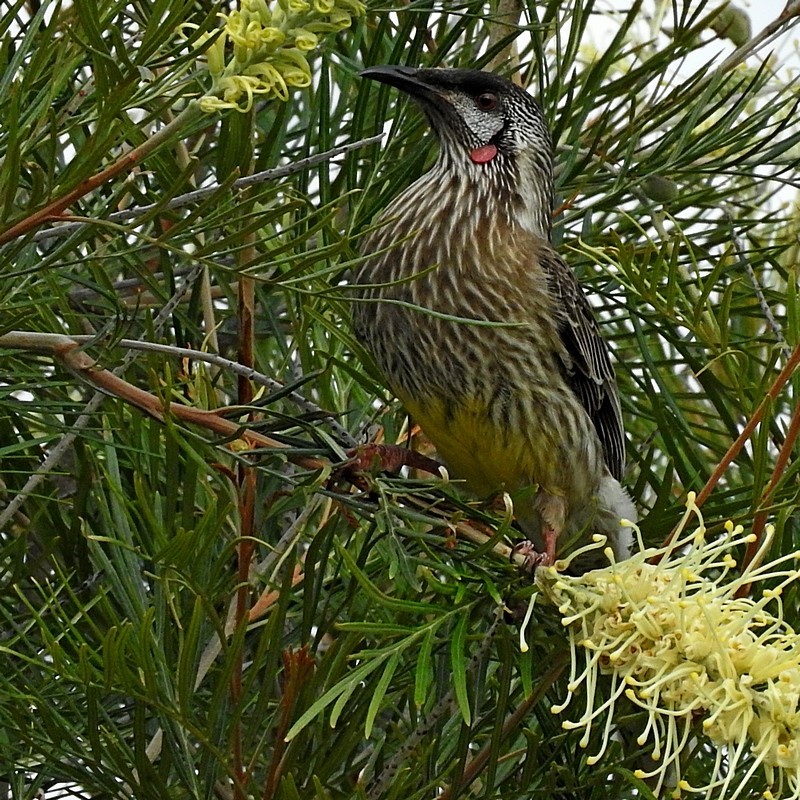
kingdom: Animalia
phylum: Chordata
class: Aves
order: Passeriformes
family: Meliphagidae
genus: Anthochaera
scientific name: Anthochaera carunculata
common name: Red wattlebird
